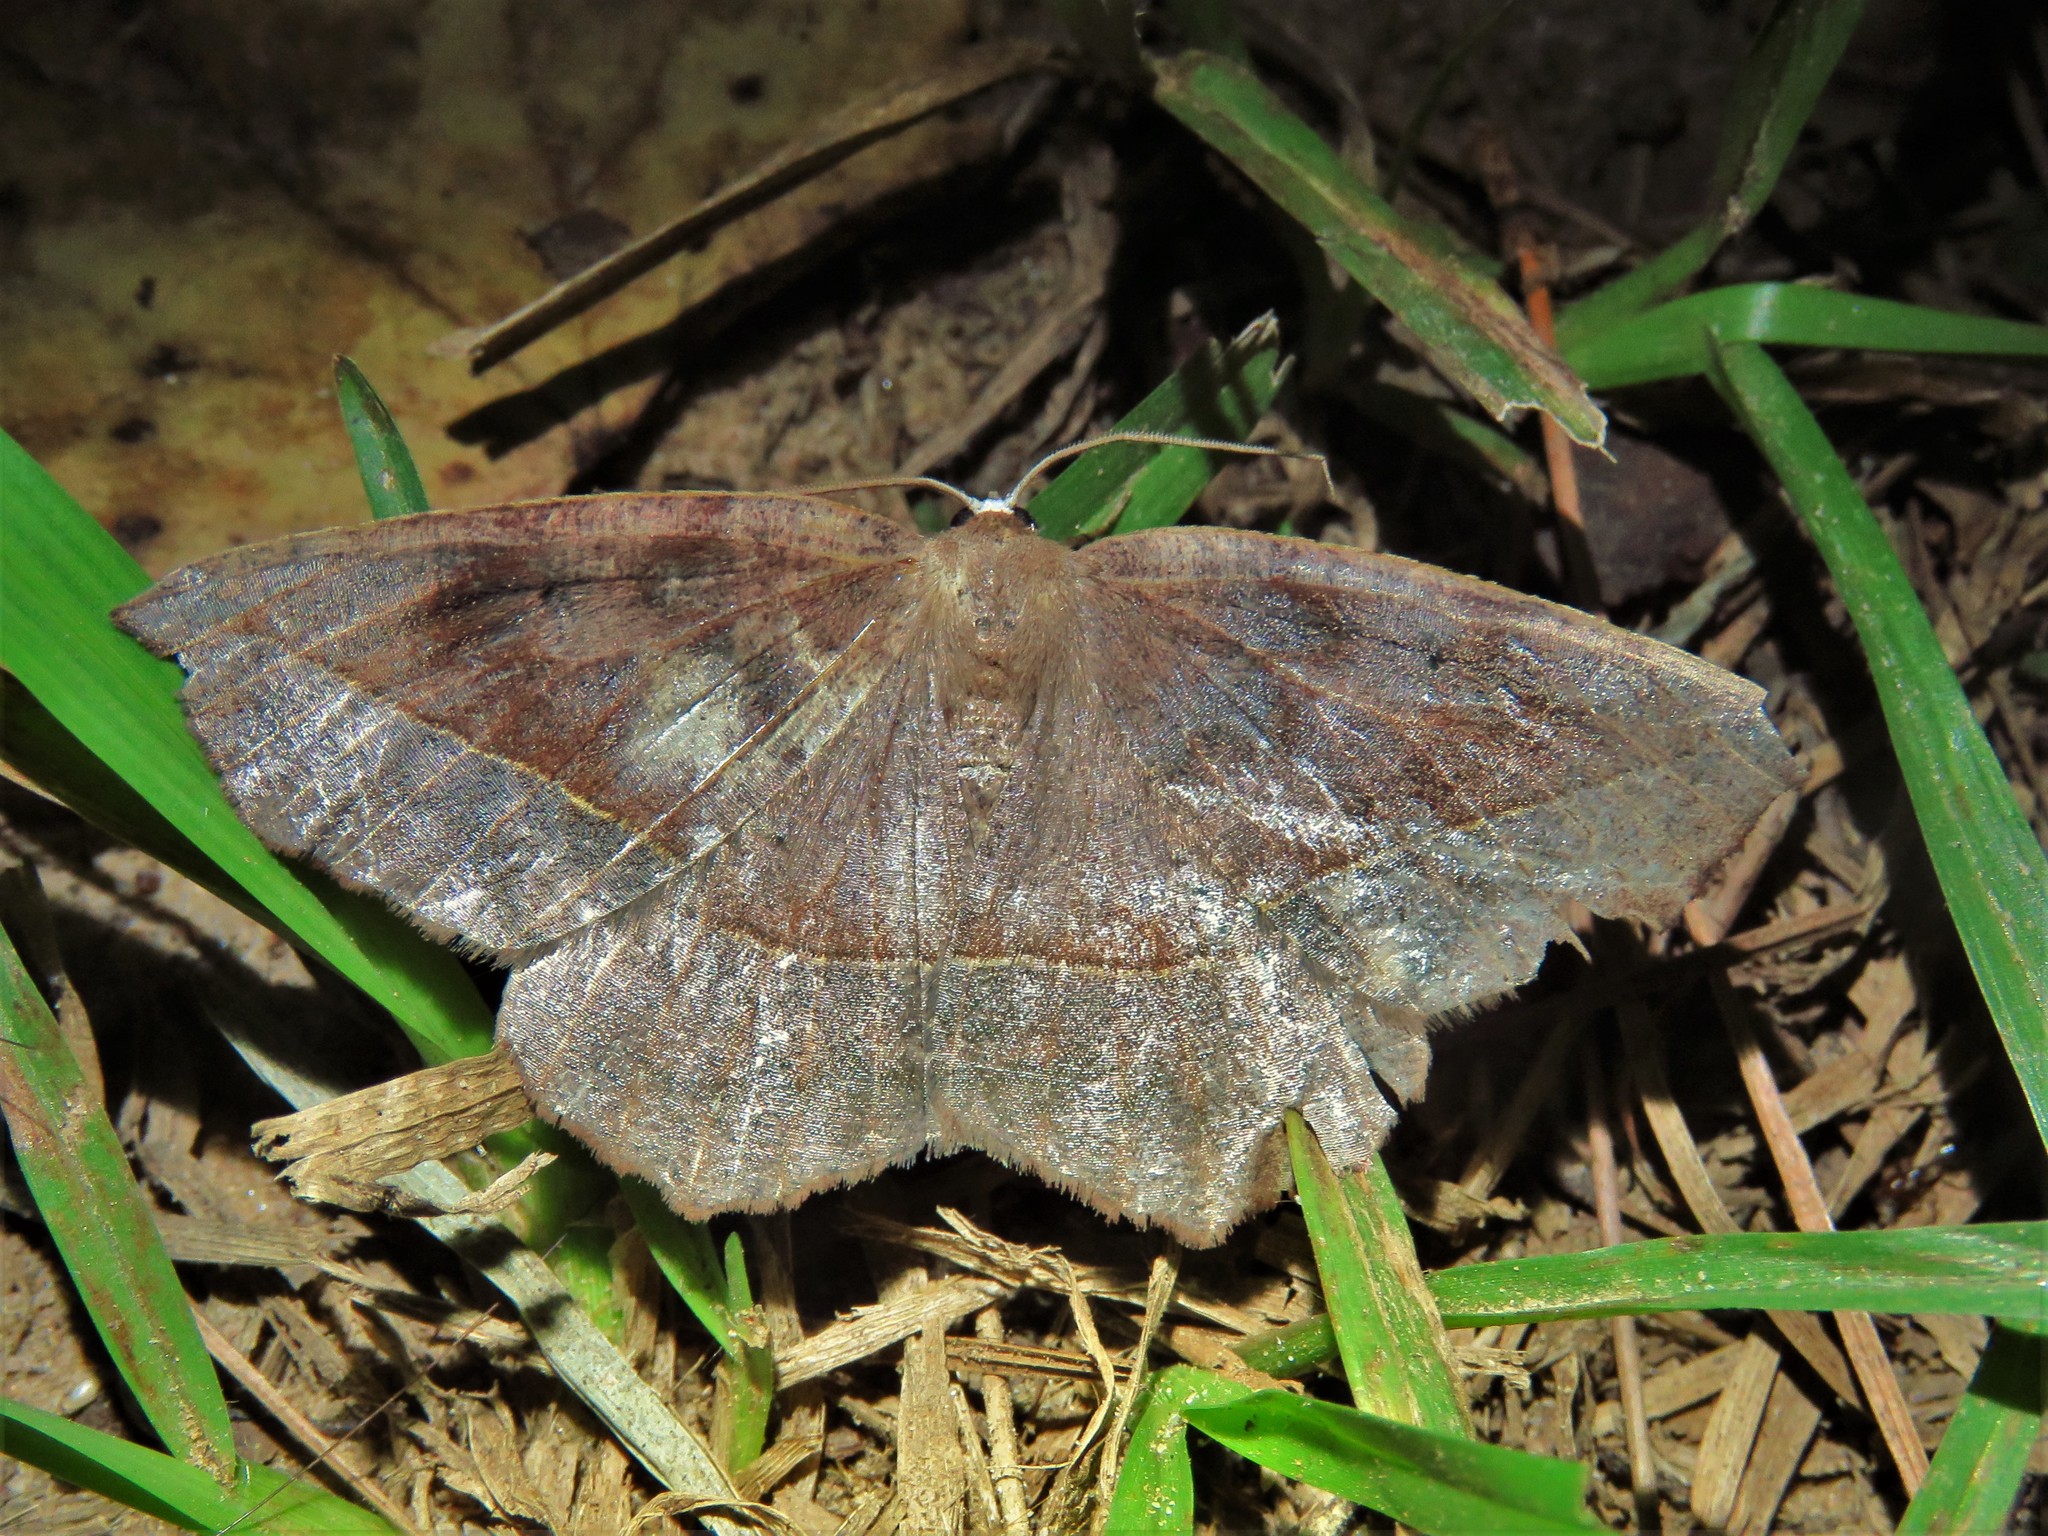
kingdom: Animalia
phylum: Arthropoda
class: Insecta
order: Lepidoptera
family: Geometridae
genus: Eutrapela
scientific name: Eutrapela clemataria
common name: Curved-toothed geometer
